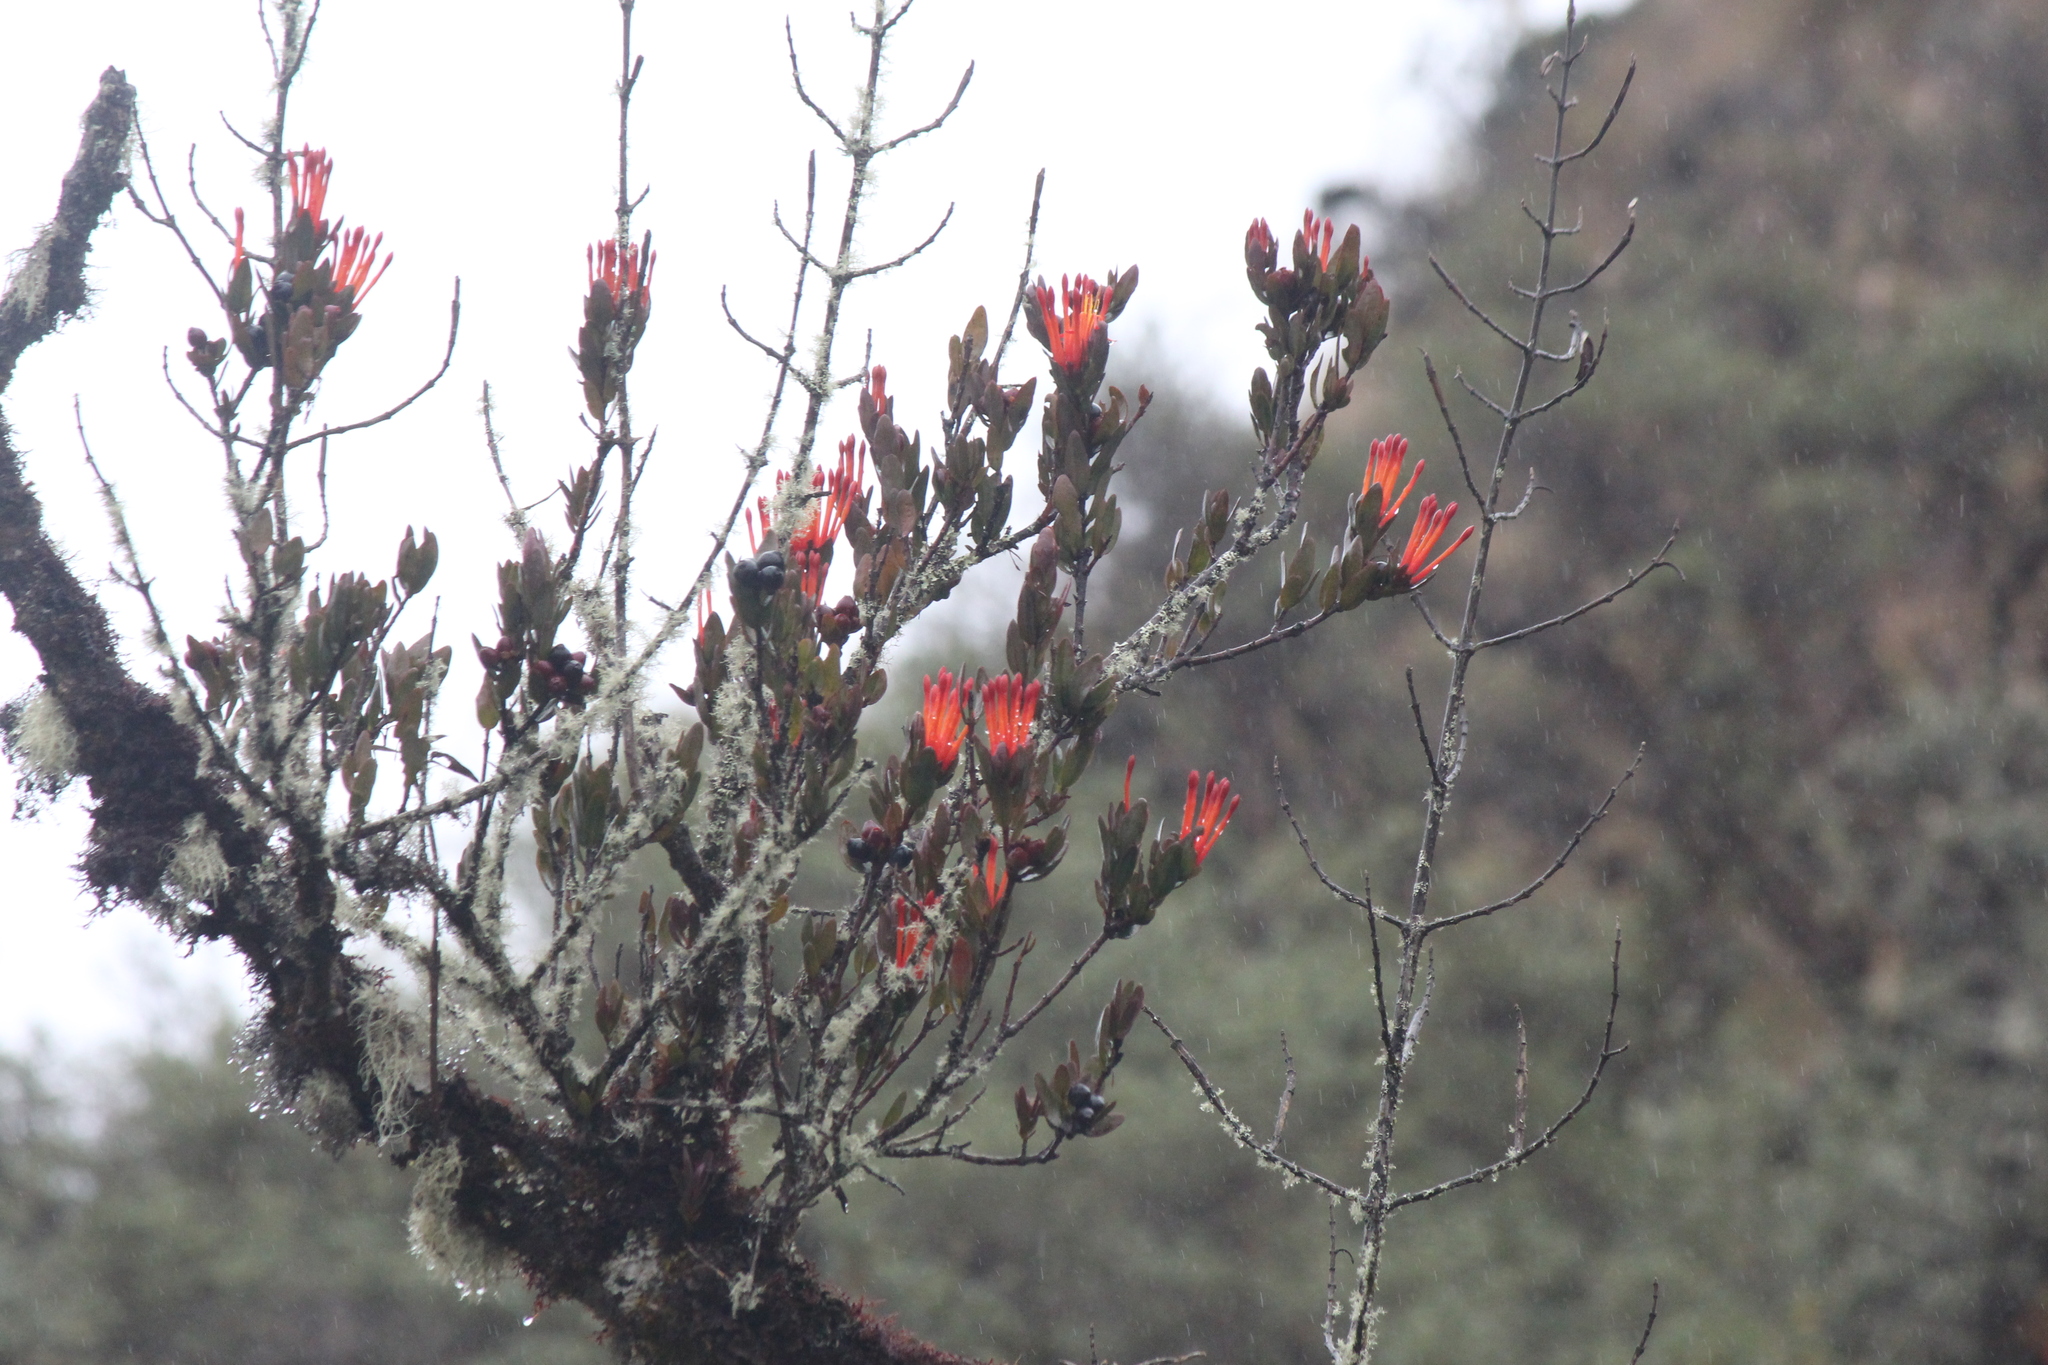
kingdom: Plantae
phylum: Tracheophyta
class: Magnoliopsida
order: Santalales
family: Loranthaceae
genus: Tristerix
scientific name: Tristerix longibracteatus
